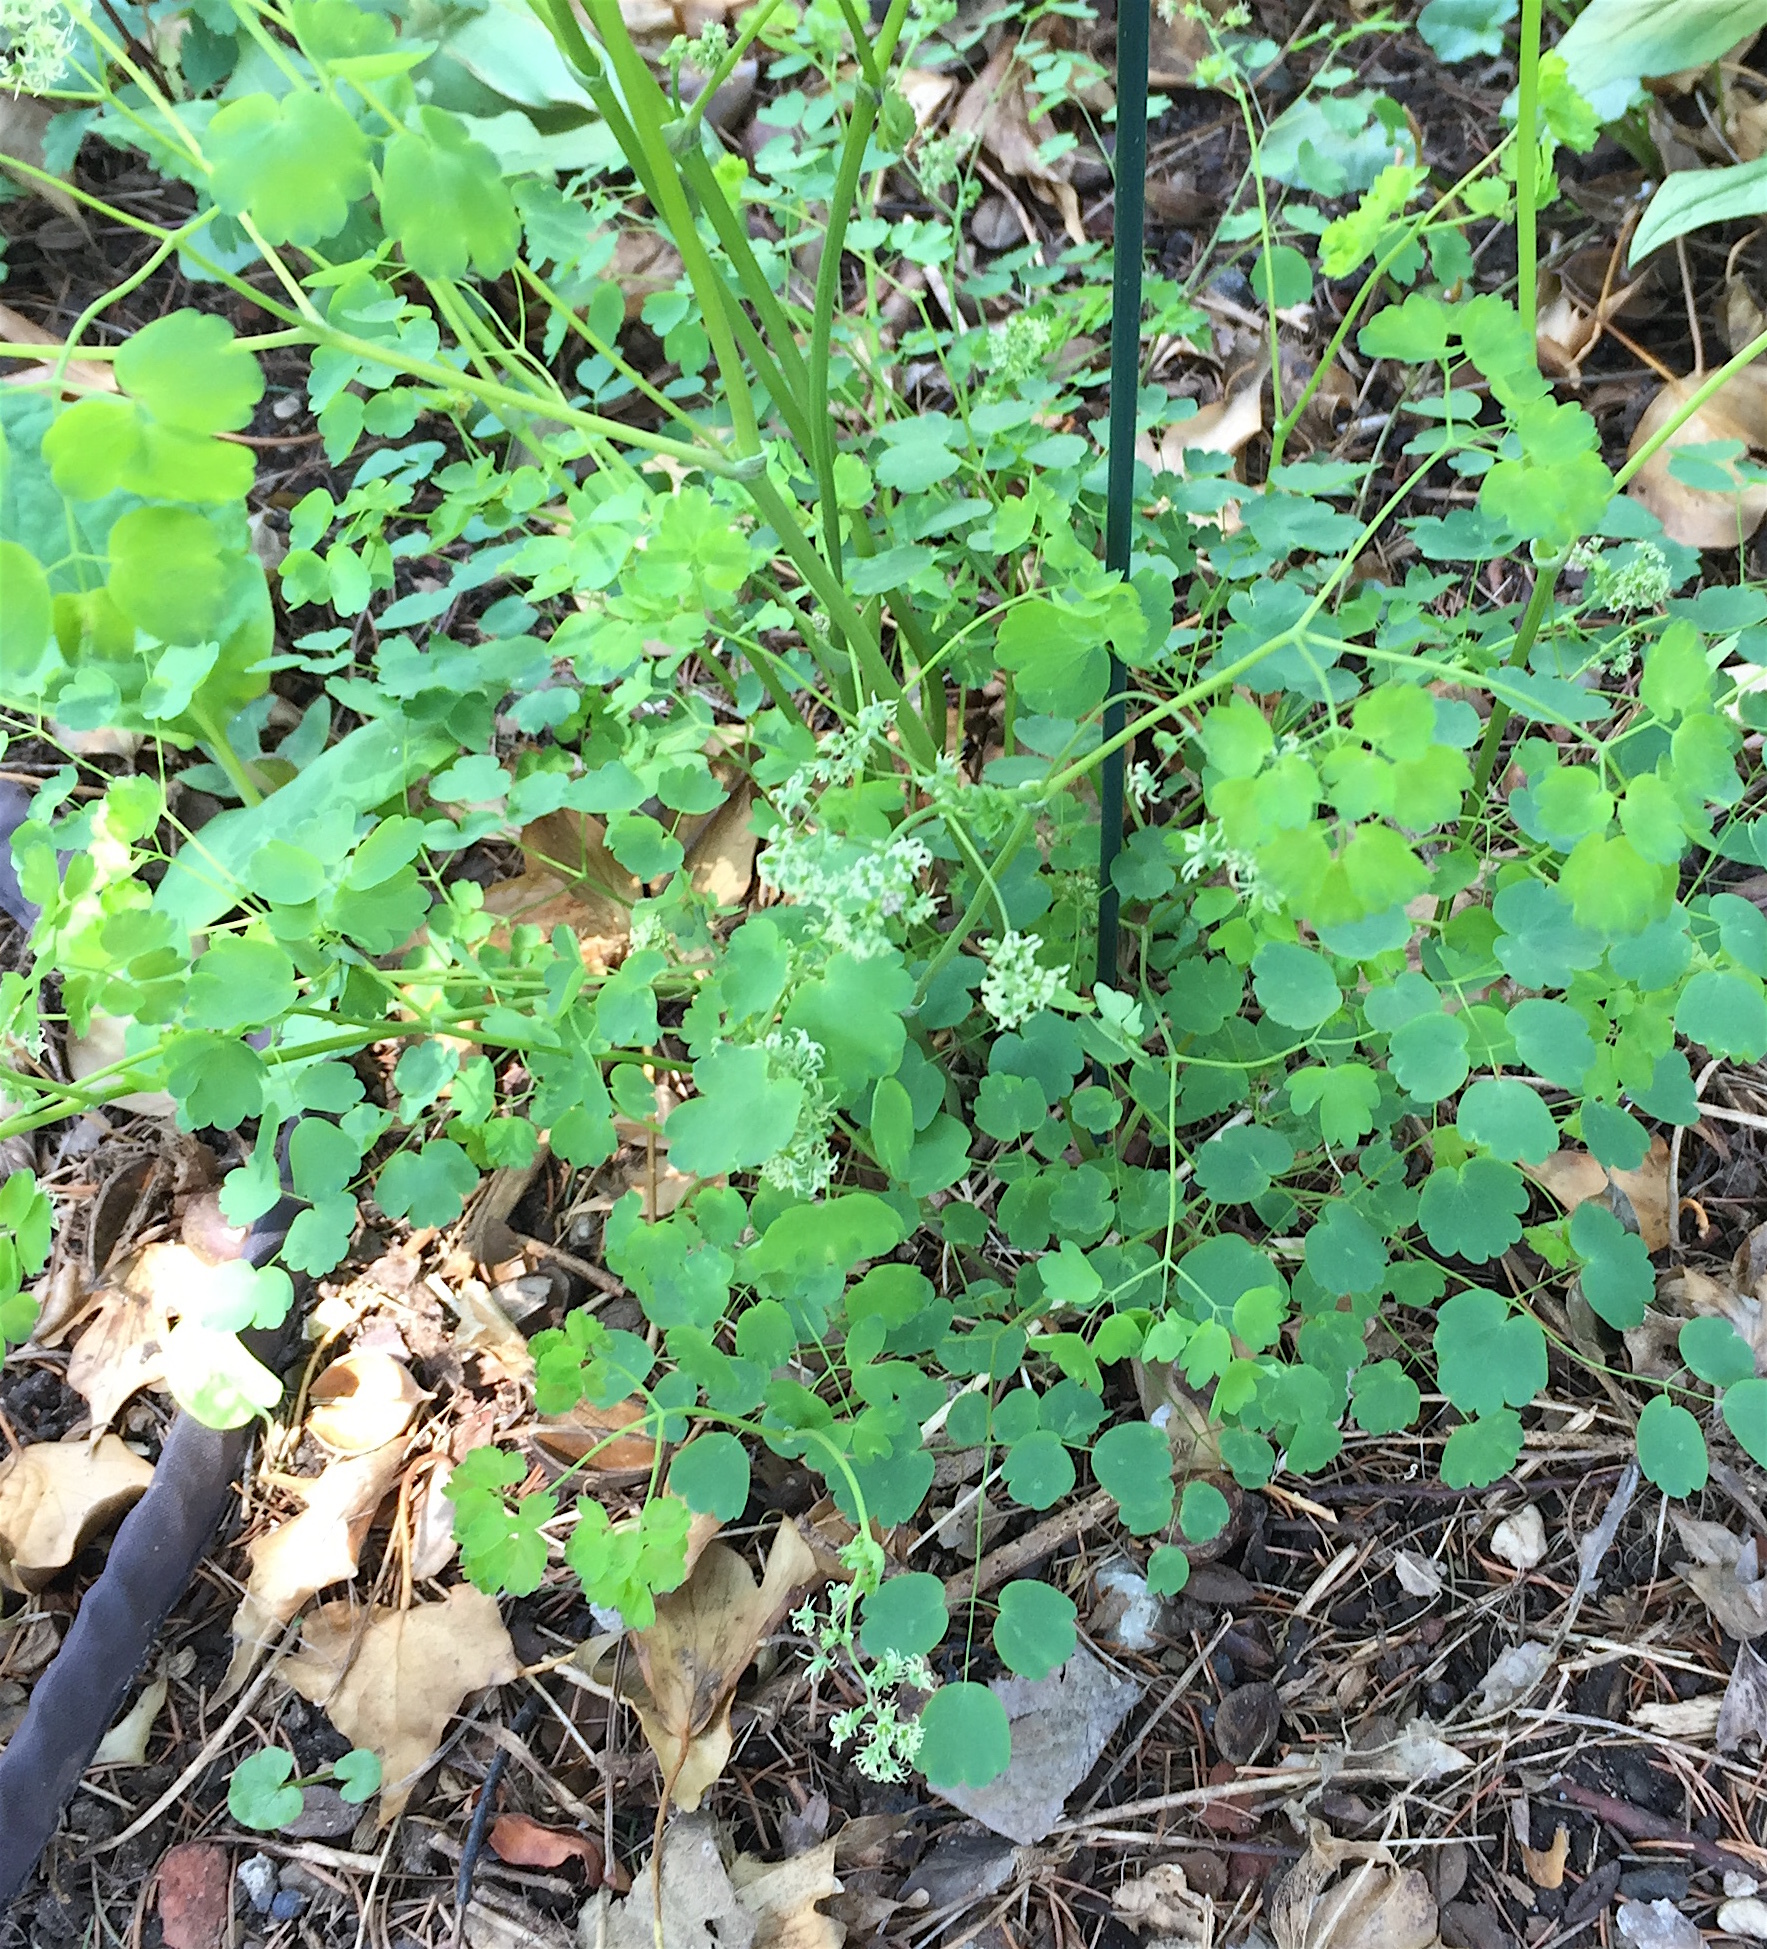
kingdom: Plantae
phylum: Tracheophyta
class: Magnoliopsida
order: Ranunculales
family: Ranunculaceae
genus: Thalictrum
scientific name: Thalictrum dioicum
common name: Early meadow-rue
